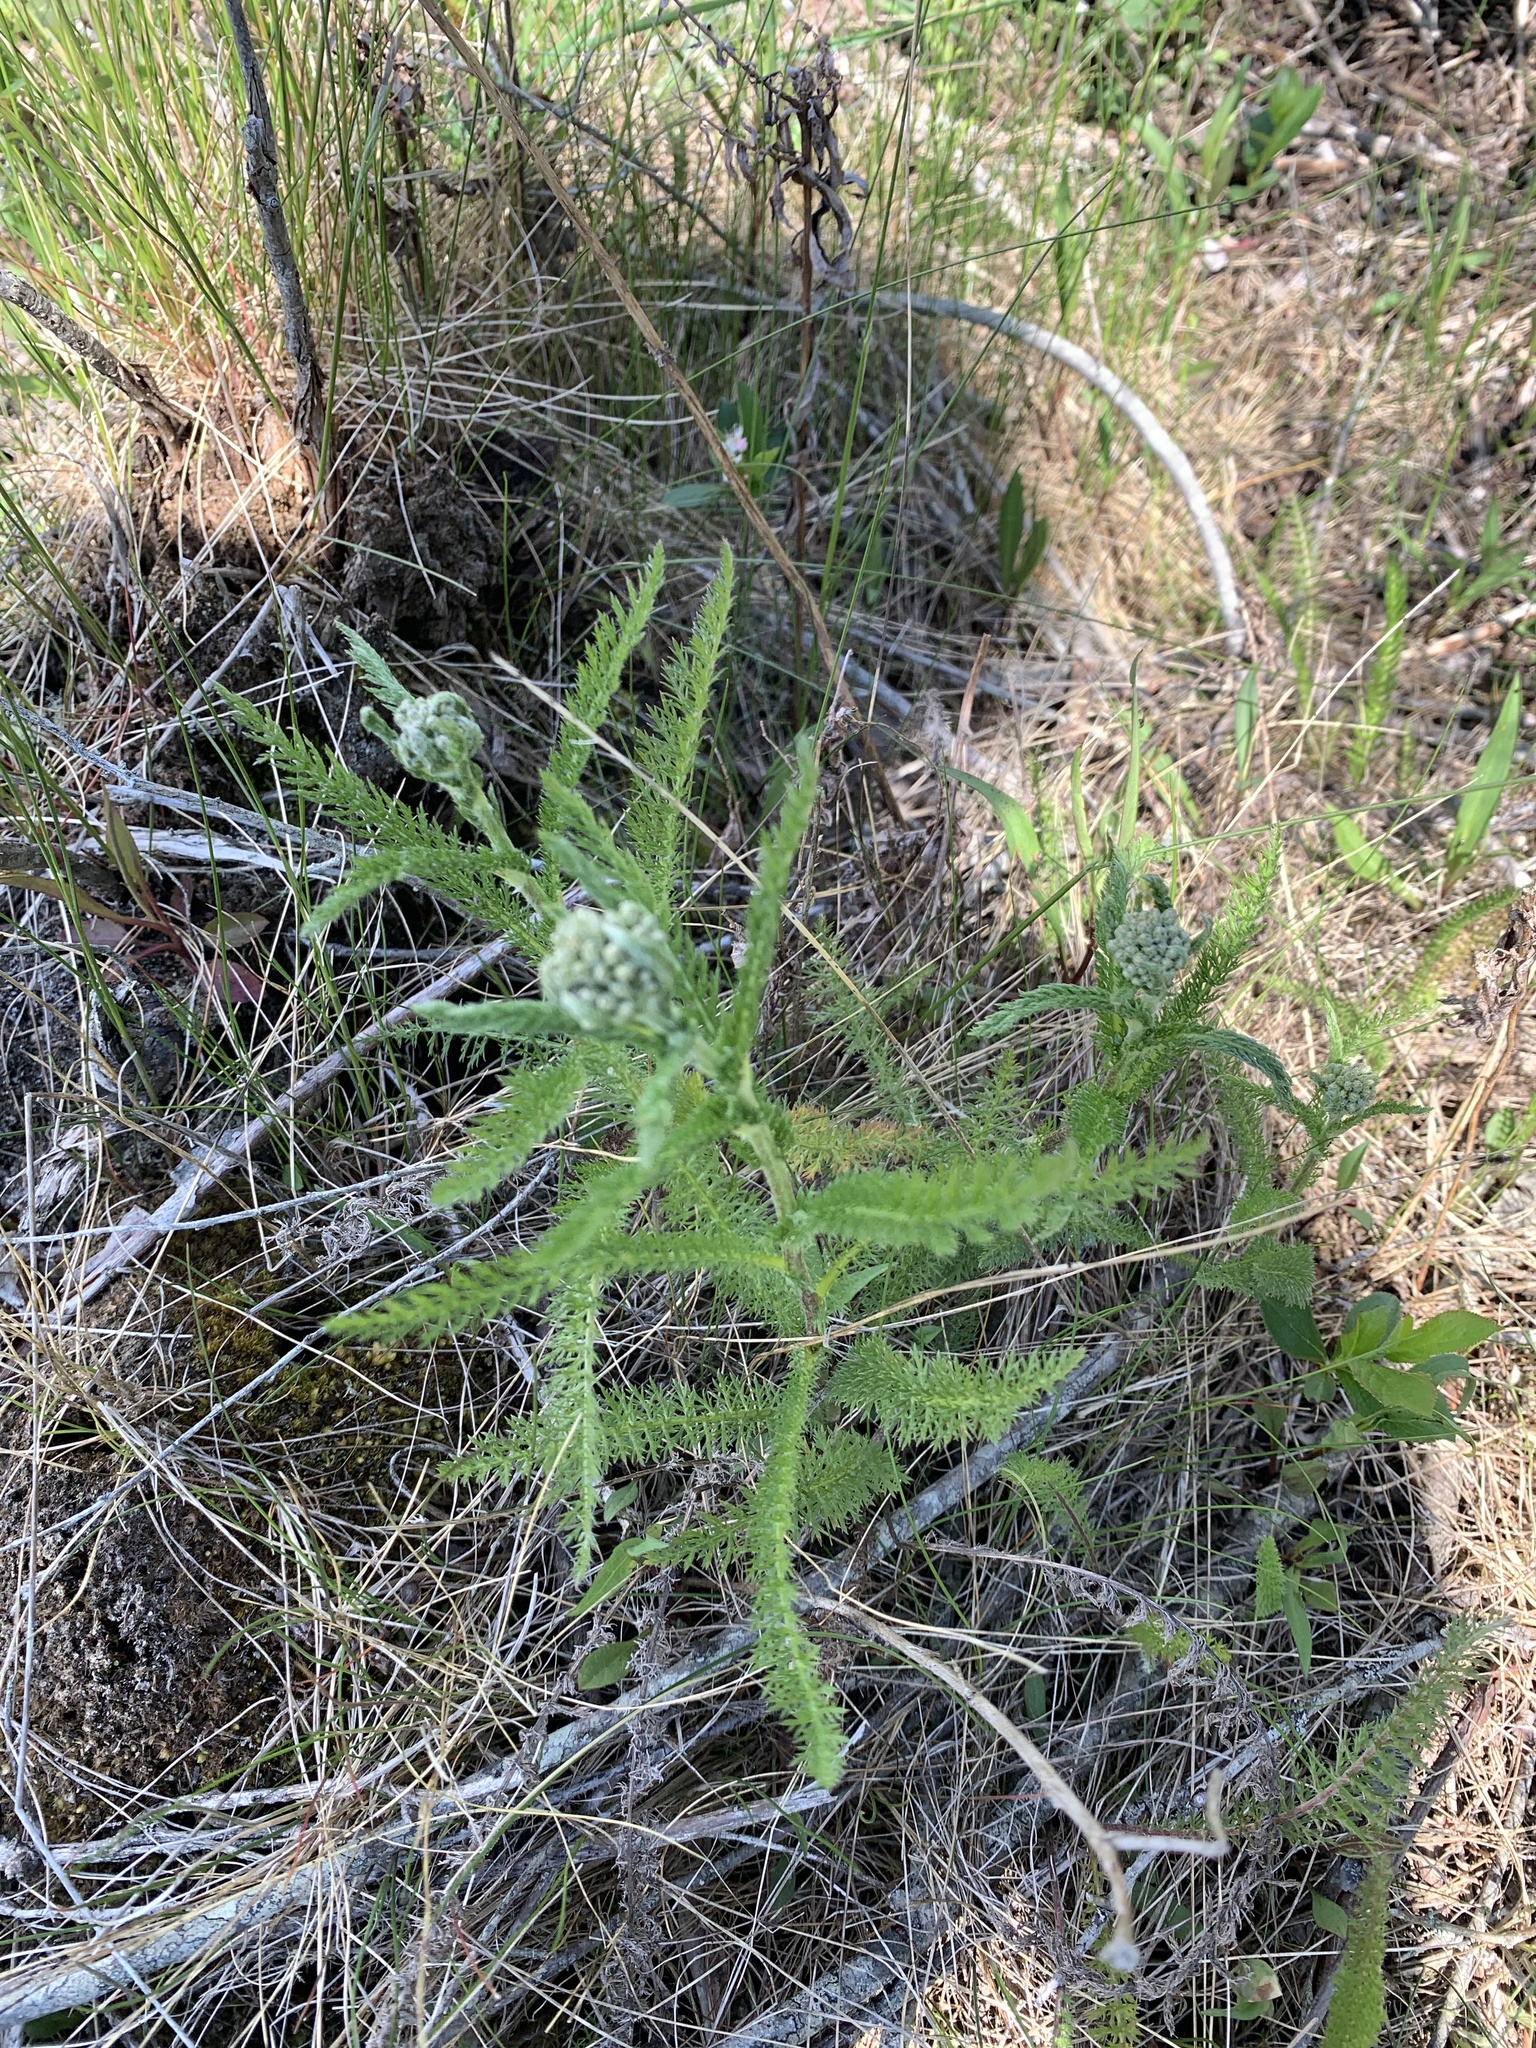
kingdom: Plantae
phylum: Tracheophyta
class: Magnoliopsida
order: Asterales
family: Asteraceae
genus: Achillea
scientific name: Achillea millefolium
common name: Yarrow
